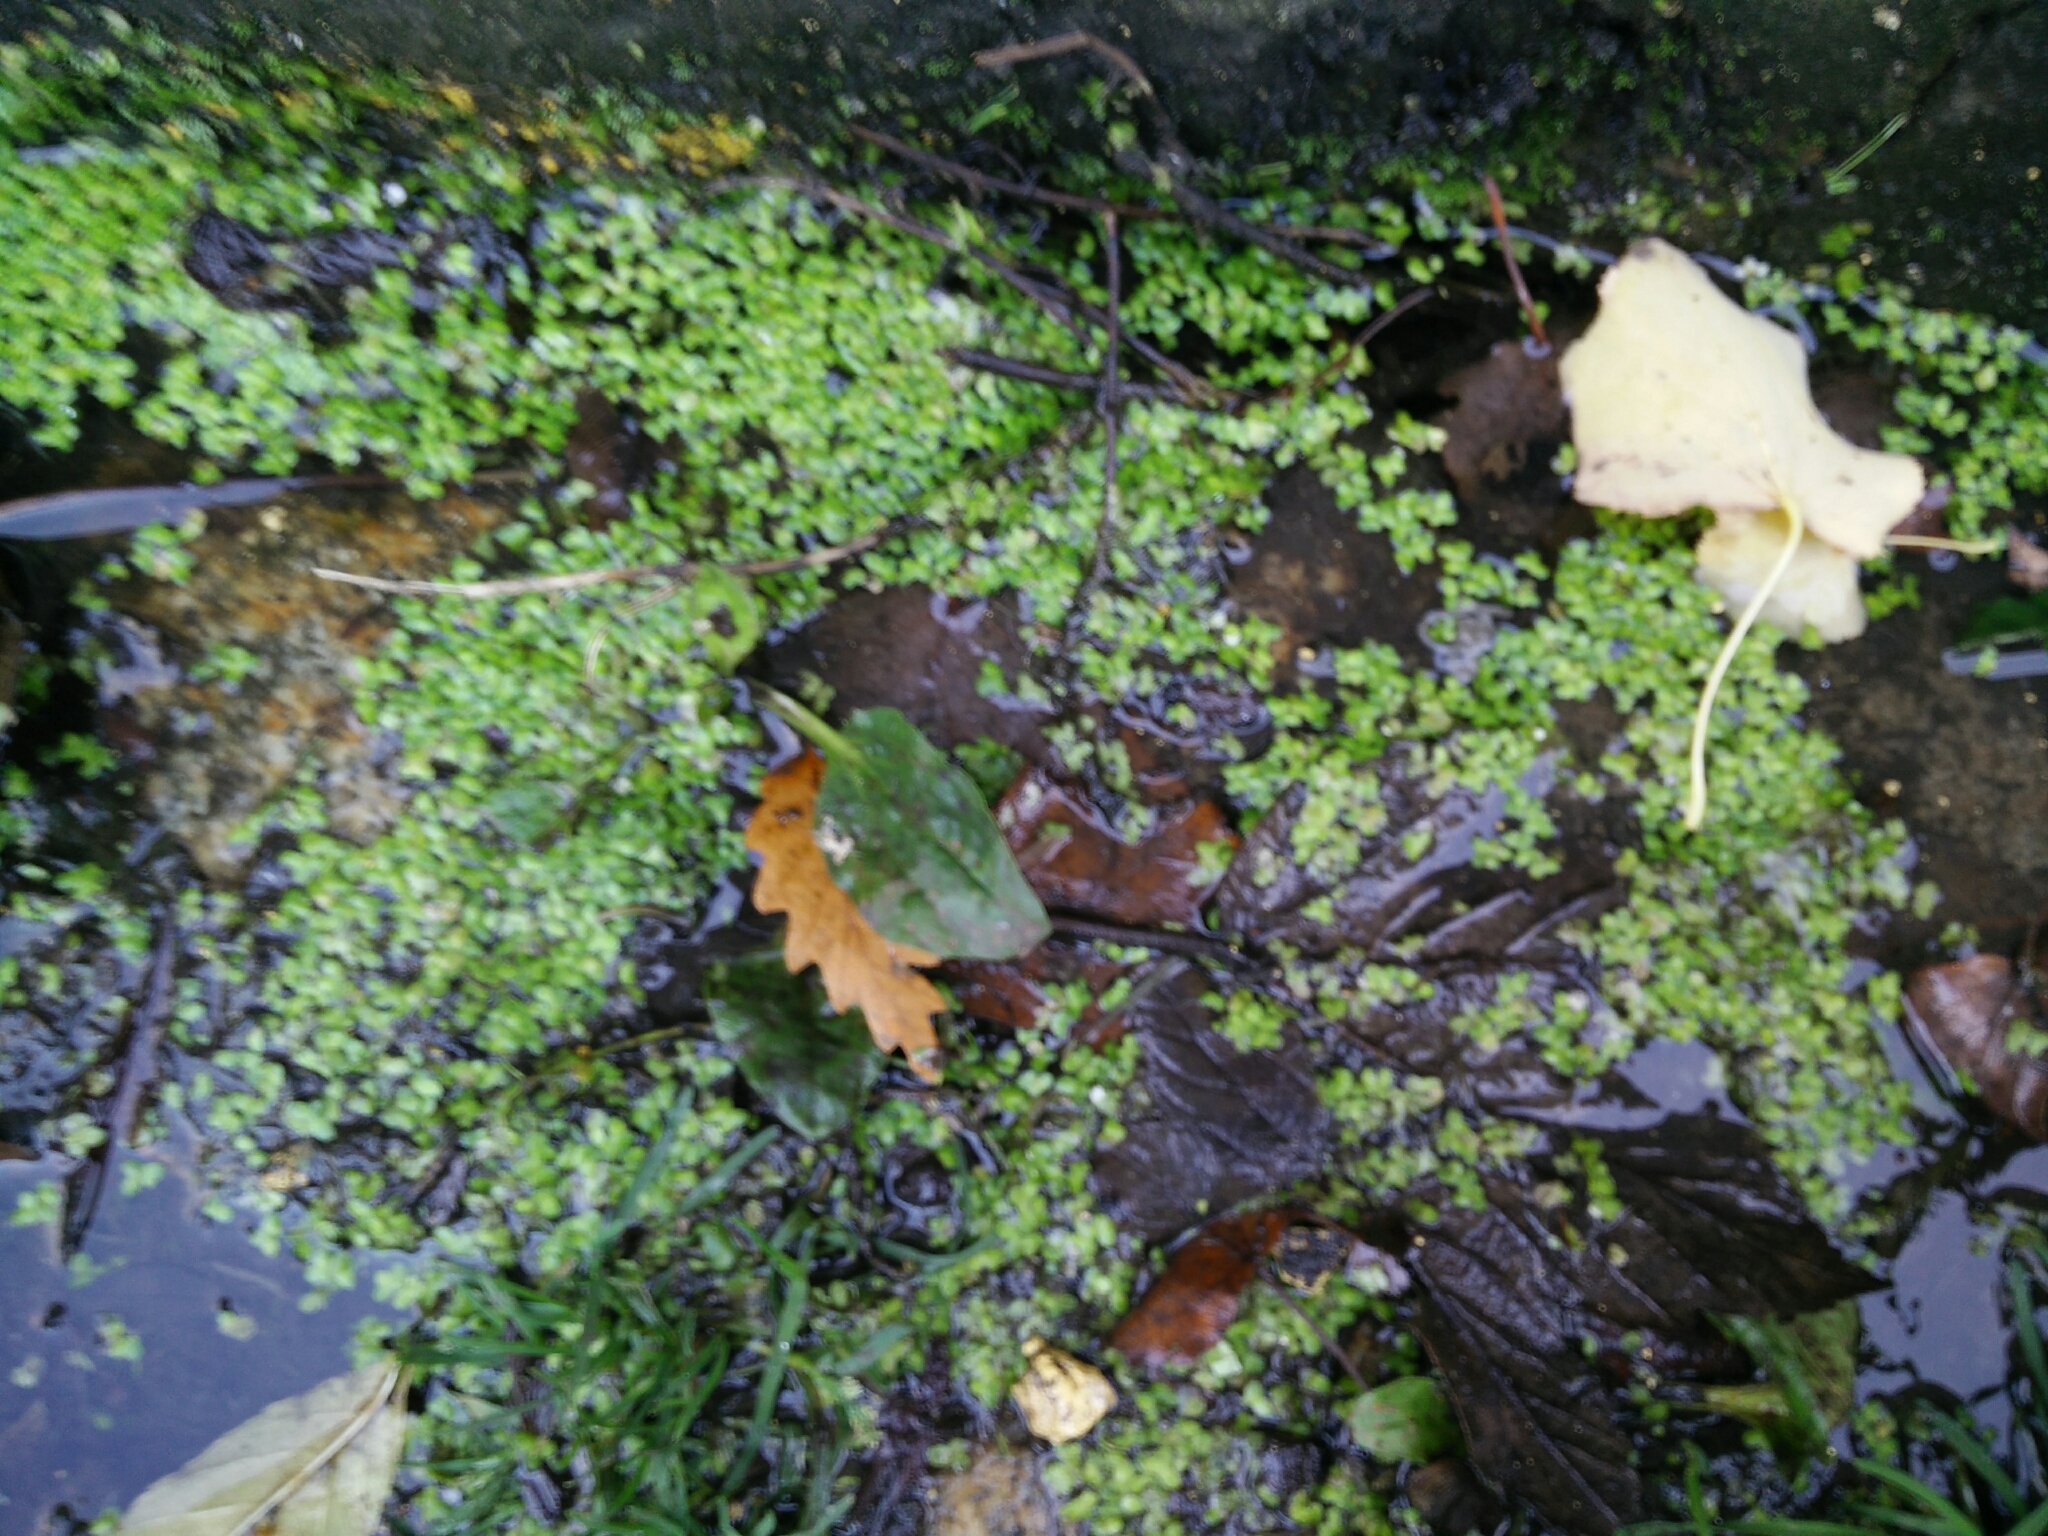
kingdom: Plantae
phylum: Tracheophyta
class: Liliopsida
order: Alismatales
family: Araceae
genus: Lemna
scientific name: Lemna minor
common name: Common duckweed
